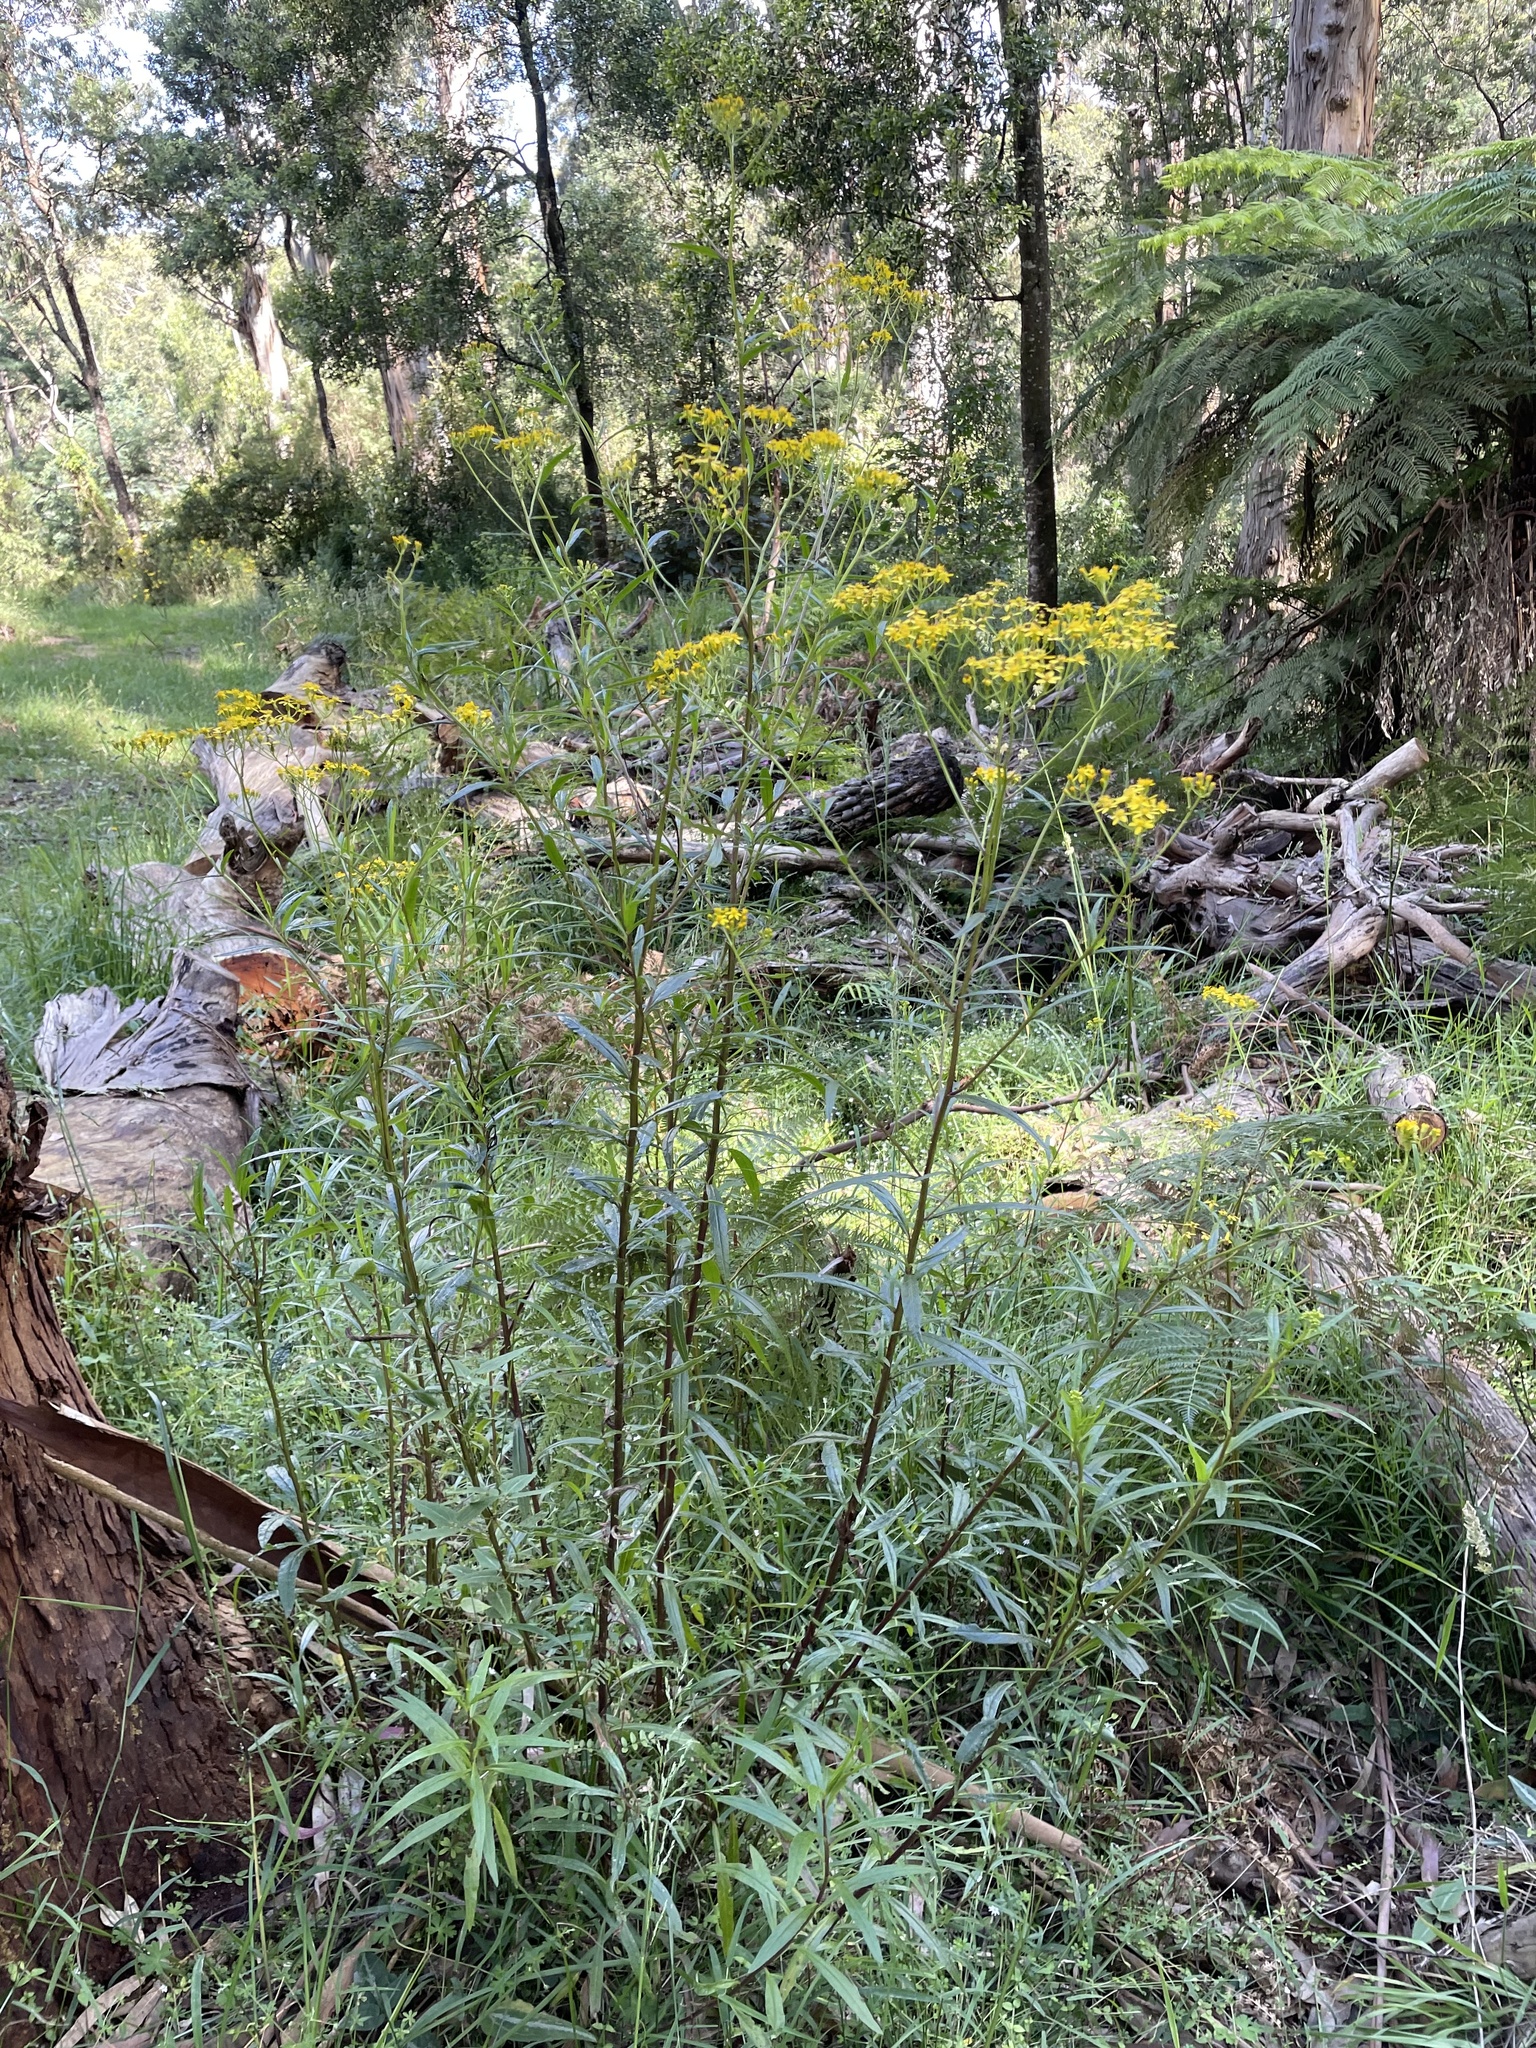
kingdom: Plantae
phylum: Tracheophyta
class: Magnoliopsida
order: Asterales
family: Asteraceae
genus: Senecio
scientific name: Senecio linearifolius
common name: Fireweed groundsel
